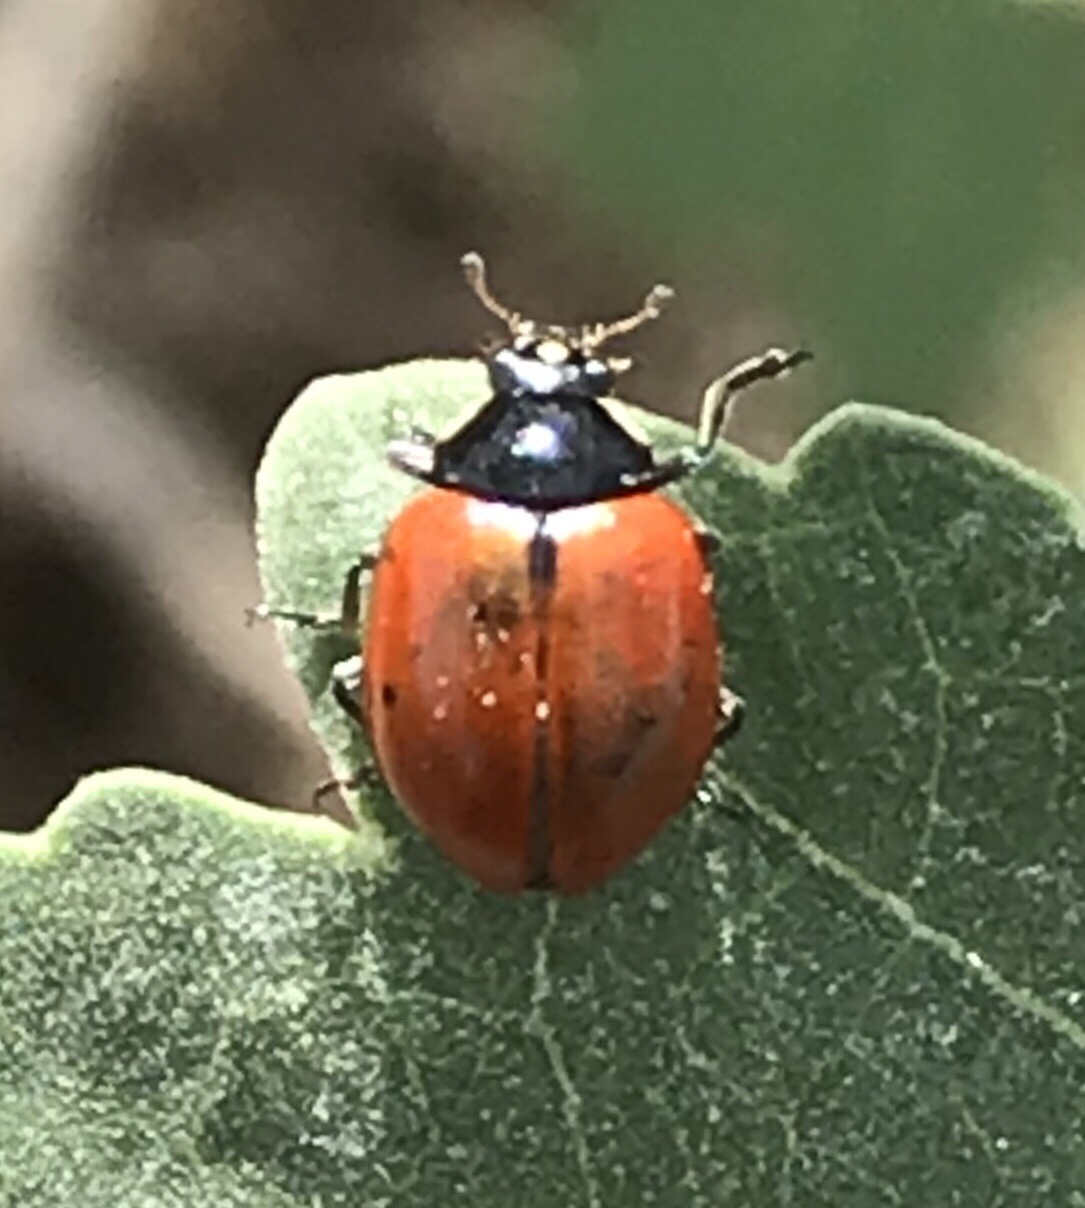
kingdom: Animalia
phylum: Arthropoda
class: Insecta
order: Coleoptera
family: Coccinellidae
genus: Hippodamia
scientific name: Hippodamia quinquesignata
